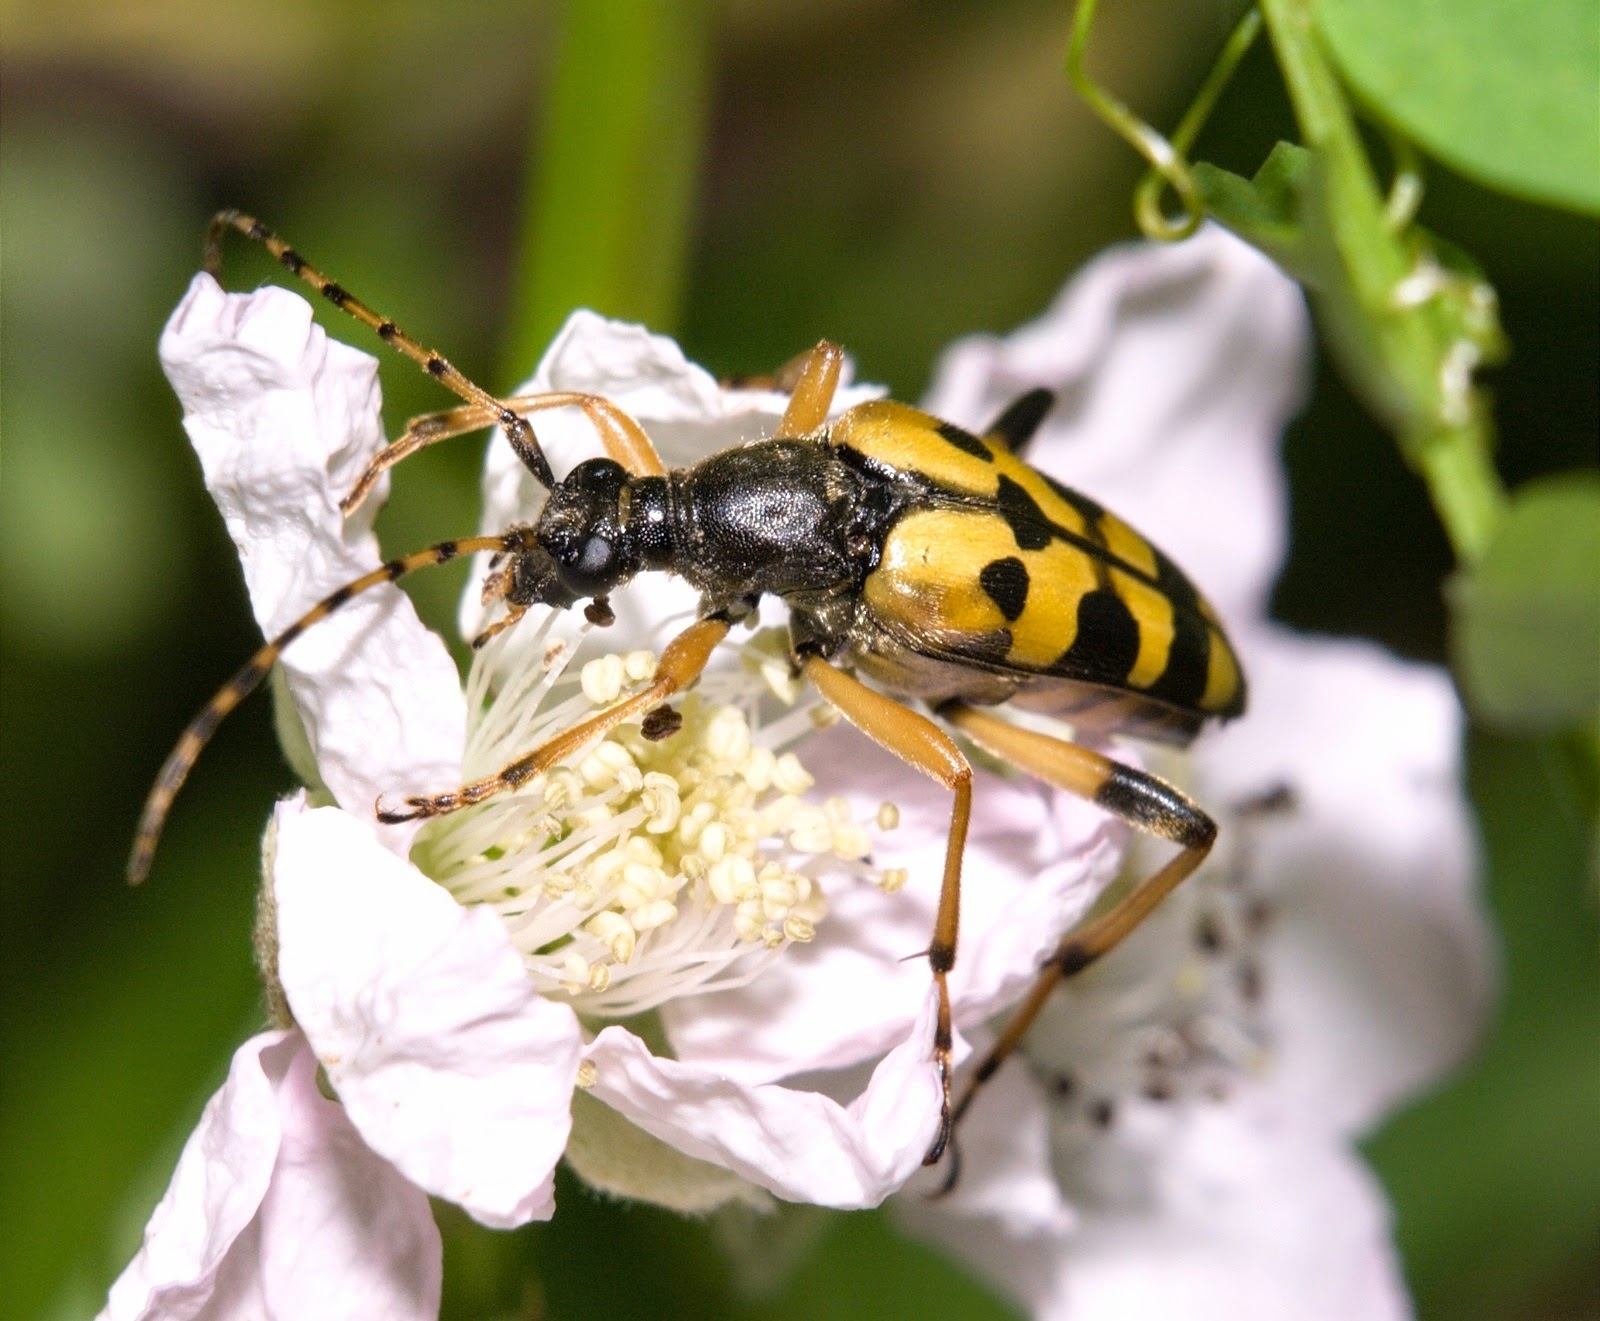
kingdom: Animalia
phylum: Arthropoda
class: Insecta
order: Coleoptera
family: Cerambycidae
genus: Rutpela
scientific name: Rutpela maculata
